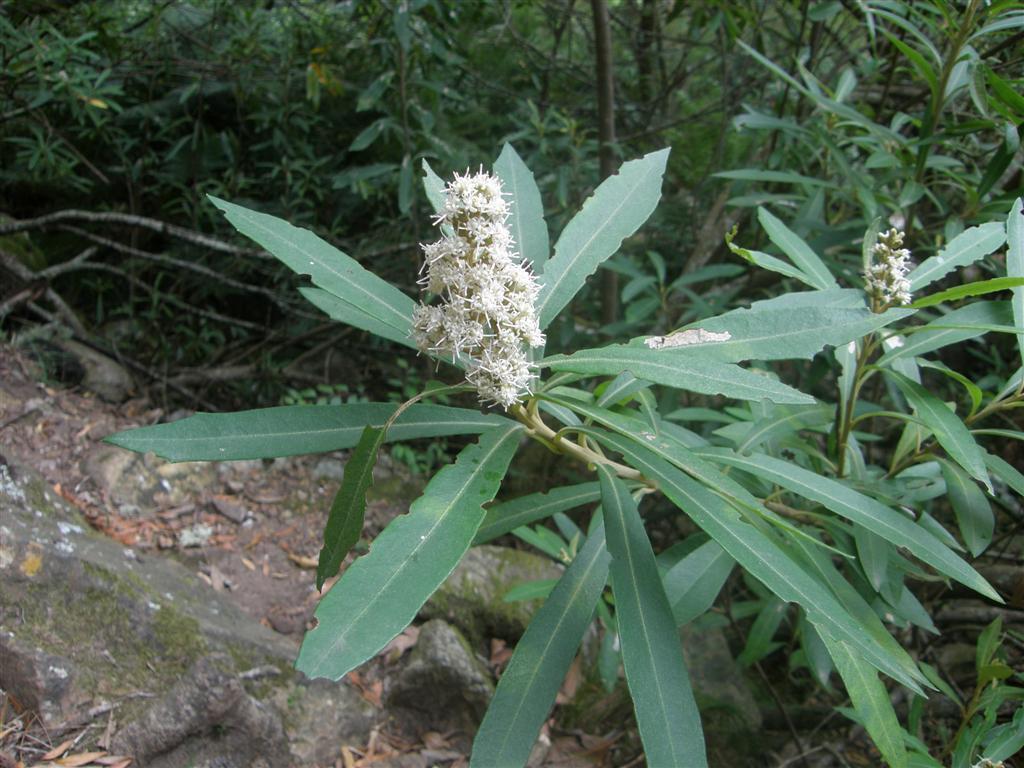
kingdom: Plantae
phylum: Tracheophyta
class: Magnoliopsida
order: Asterales
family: Asteraceae
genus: Brachylaena
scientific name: Brachylaena neriifolia
